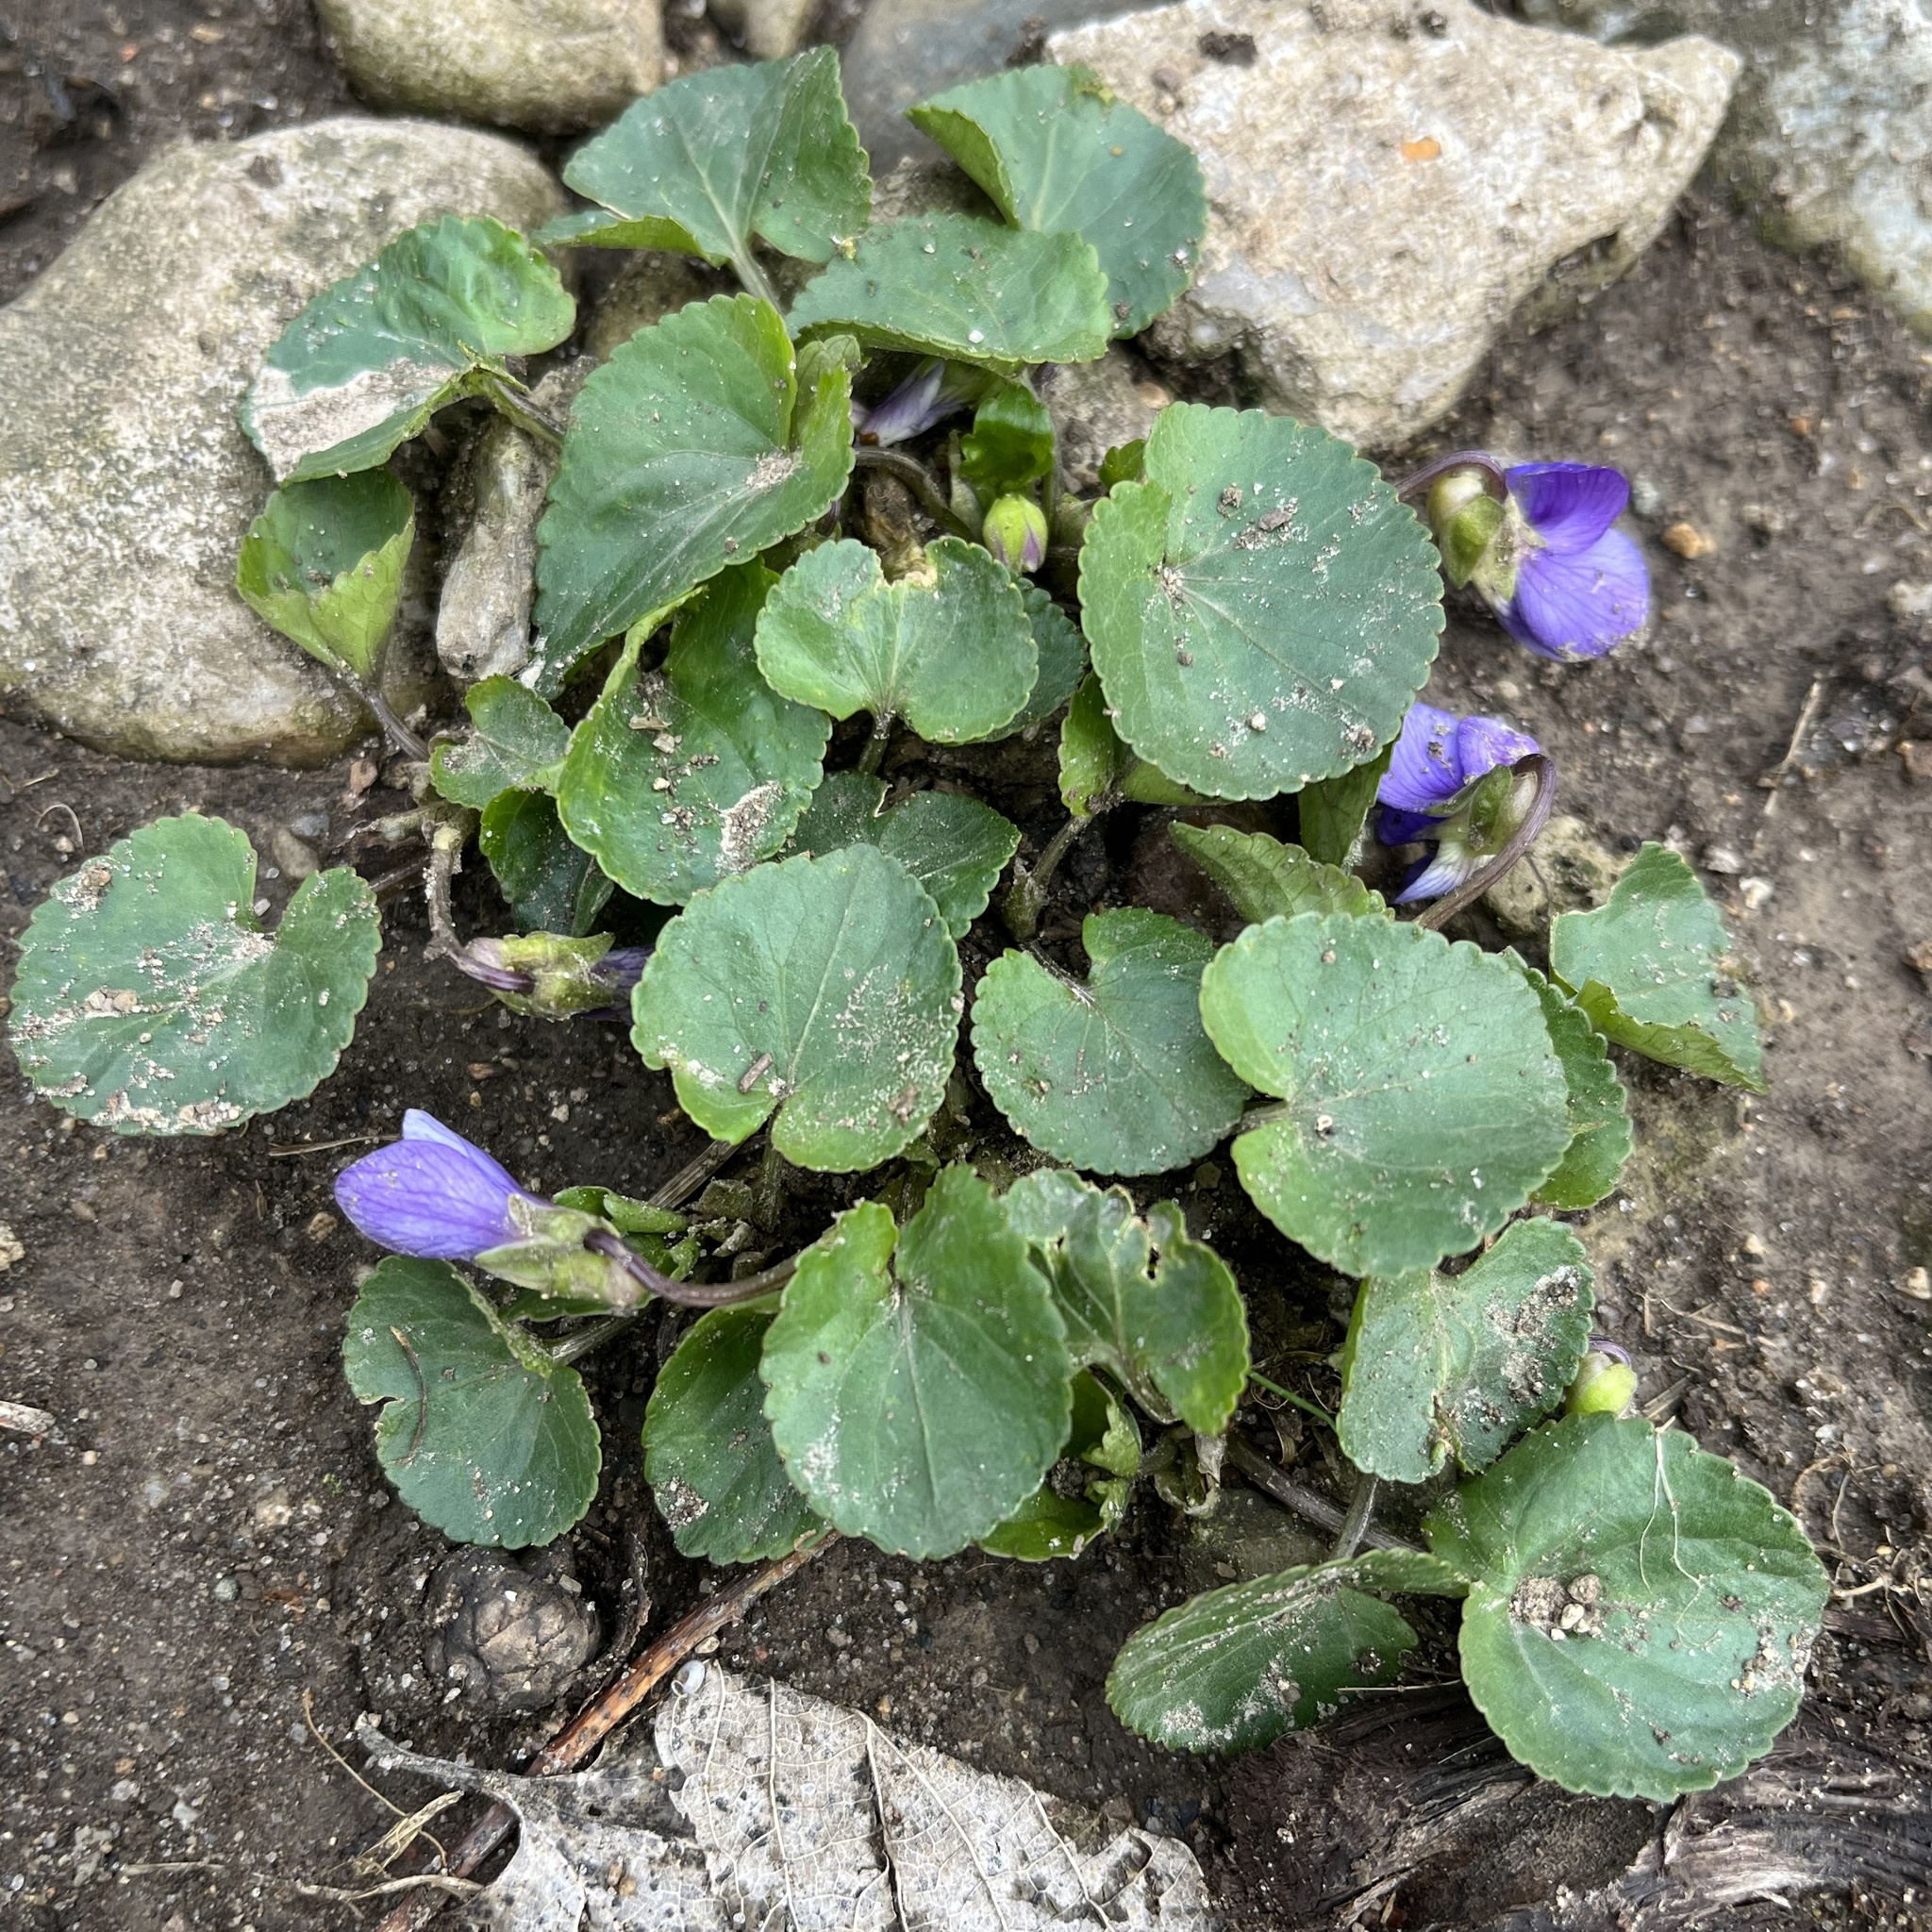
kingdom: Plantae
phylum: Tracheophyta
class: Magnoliopsida
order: Malpighiales
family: Violaceae
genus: Viola
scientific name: Viola sororia
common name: Dooryard violet
